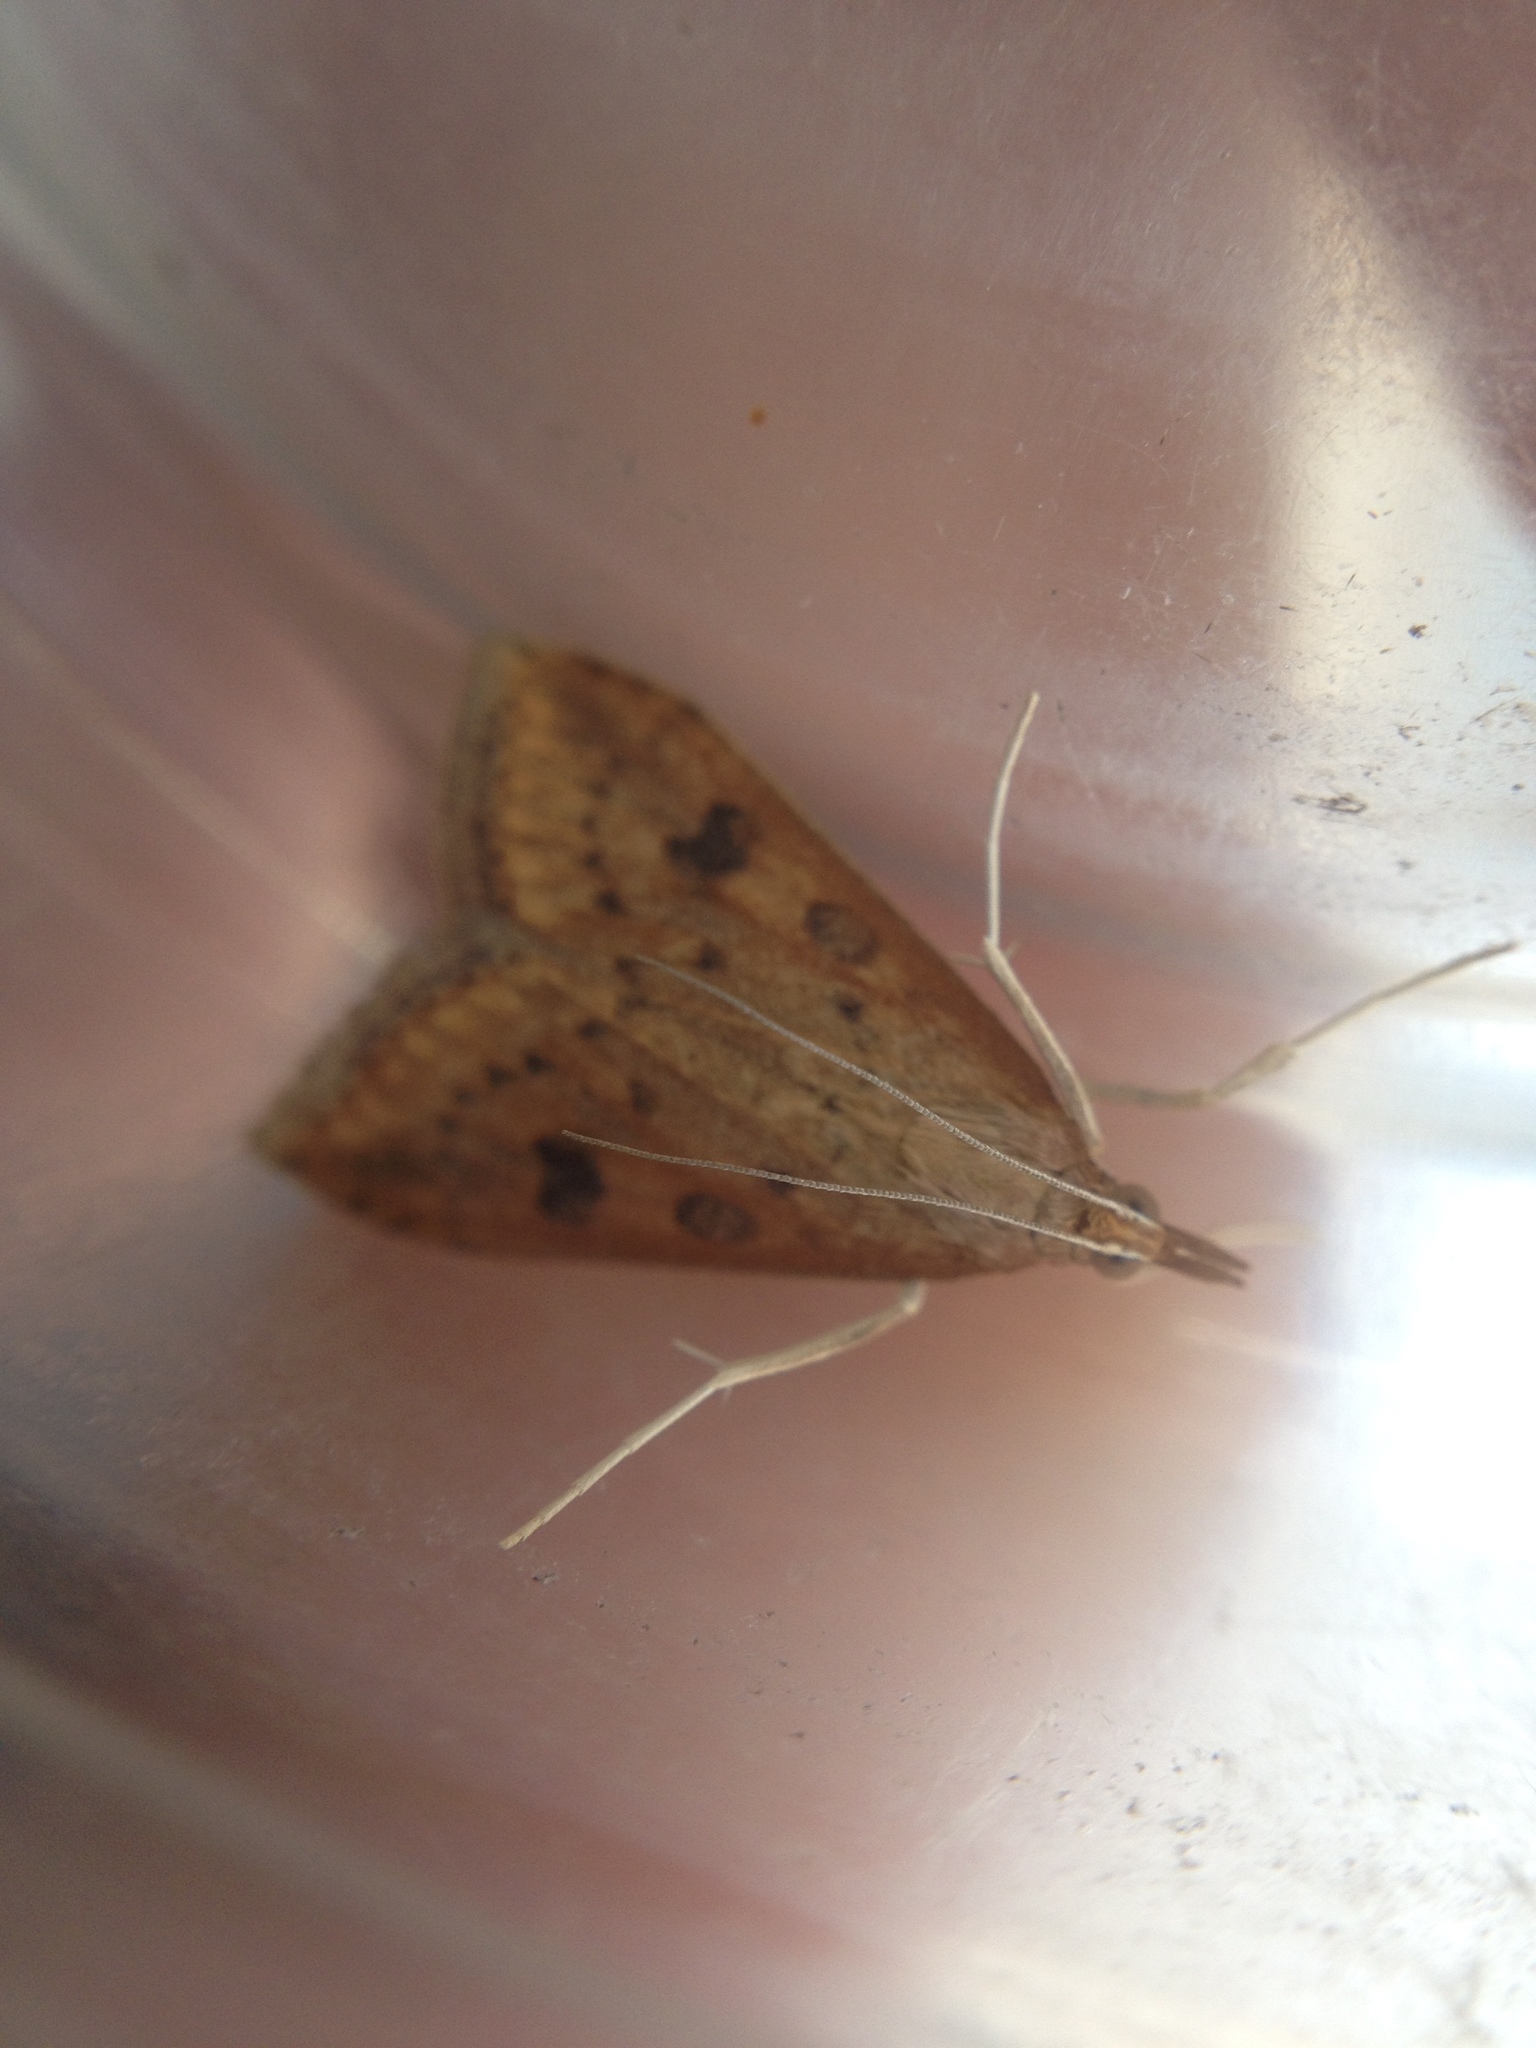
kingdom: Animalia
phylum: Arthropoda
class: Insecta
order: Lepidoptera
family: Crambidae
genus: Udea
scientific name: Udea ferrugalis
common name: Rusty dot
